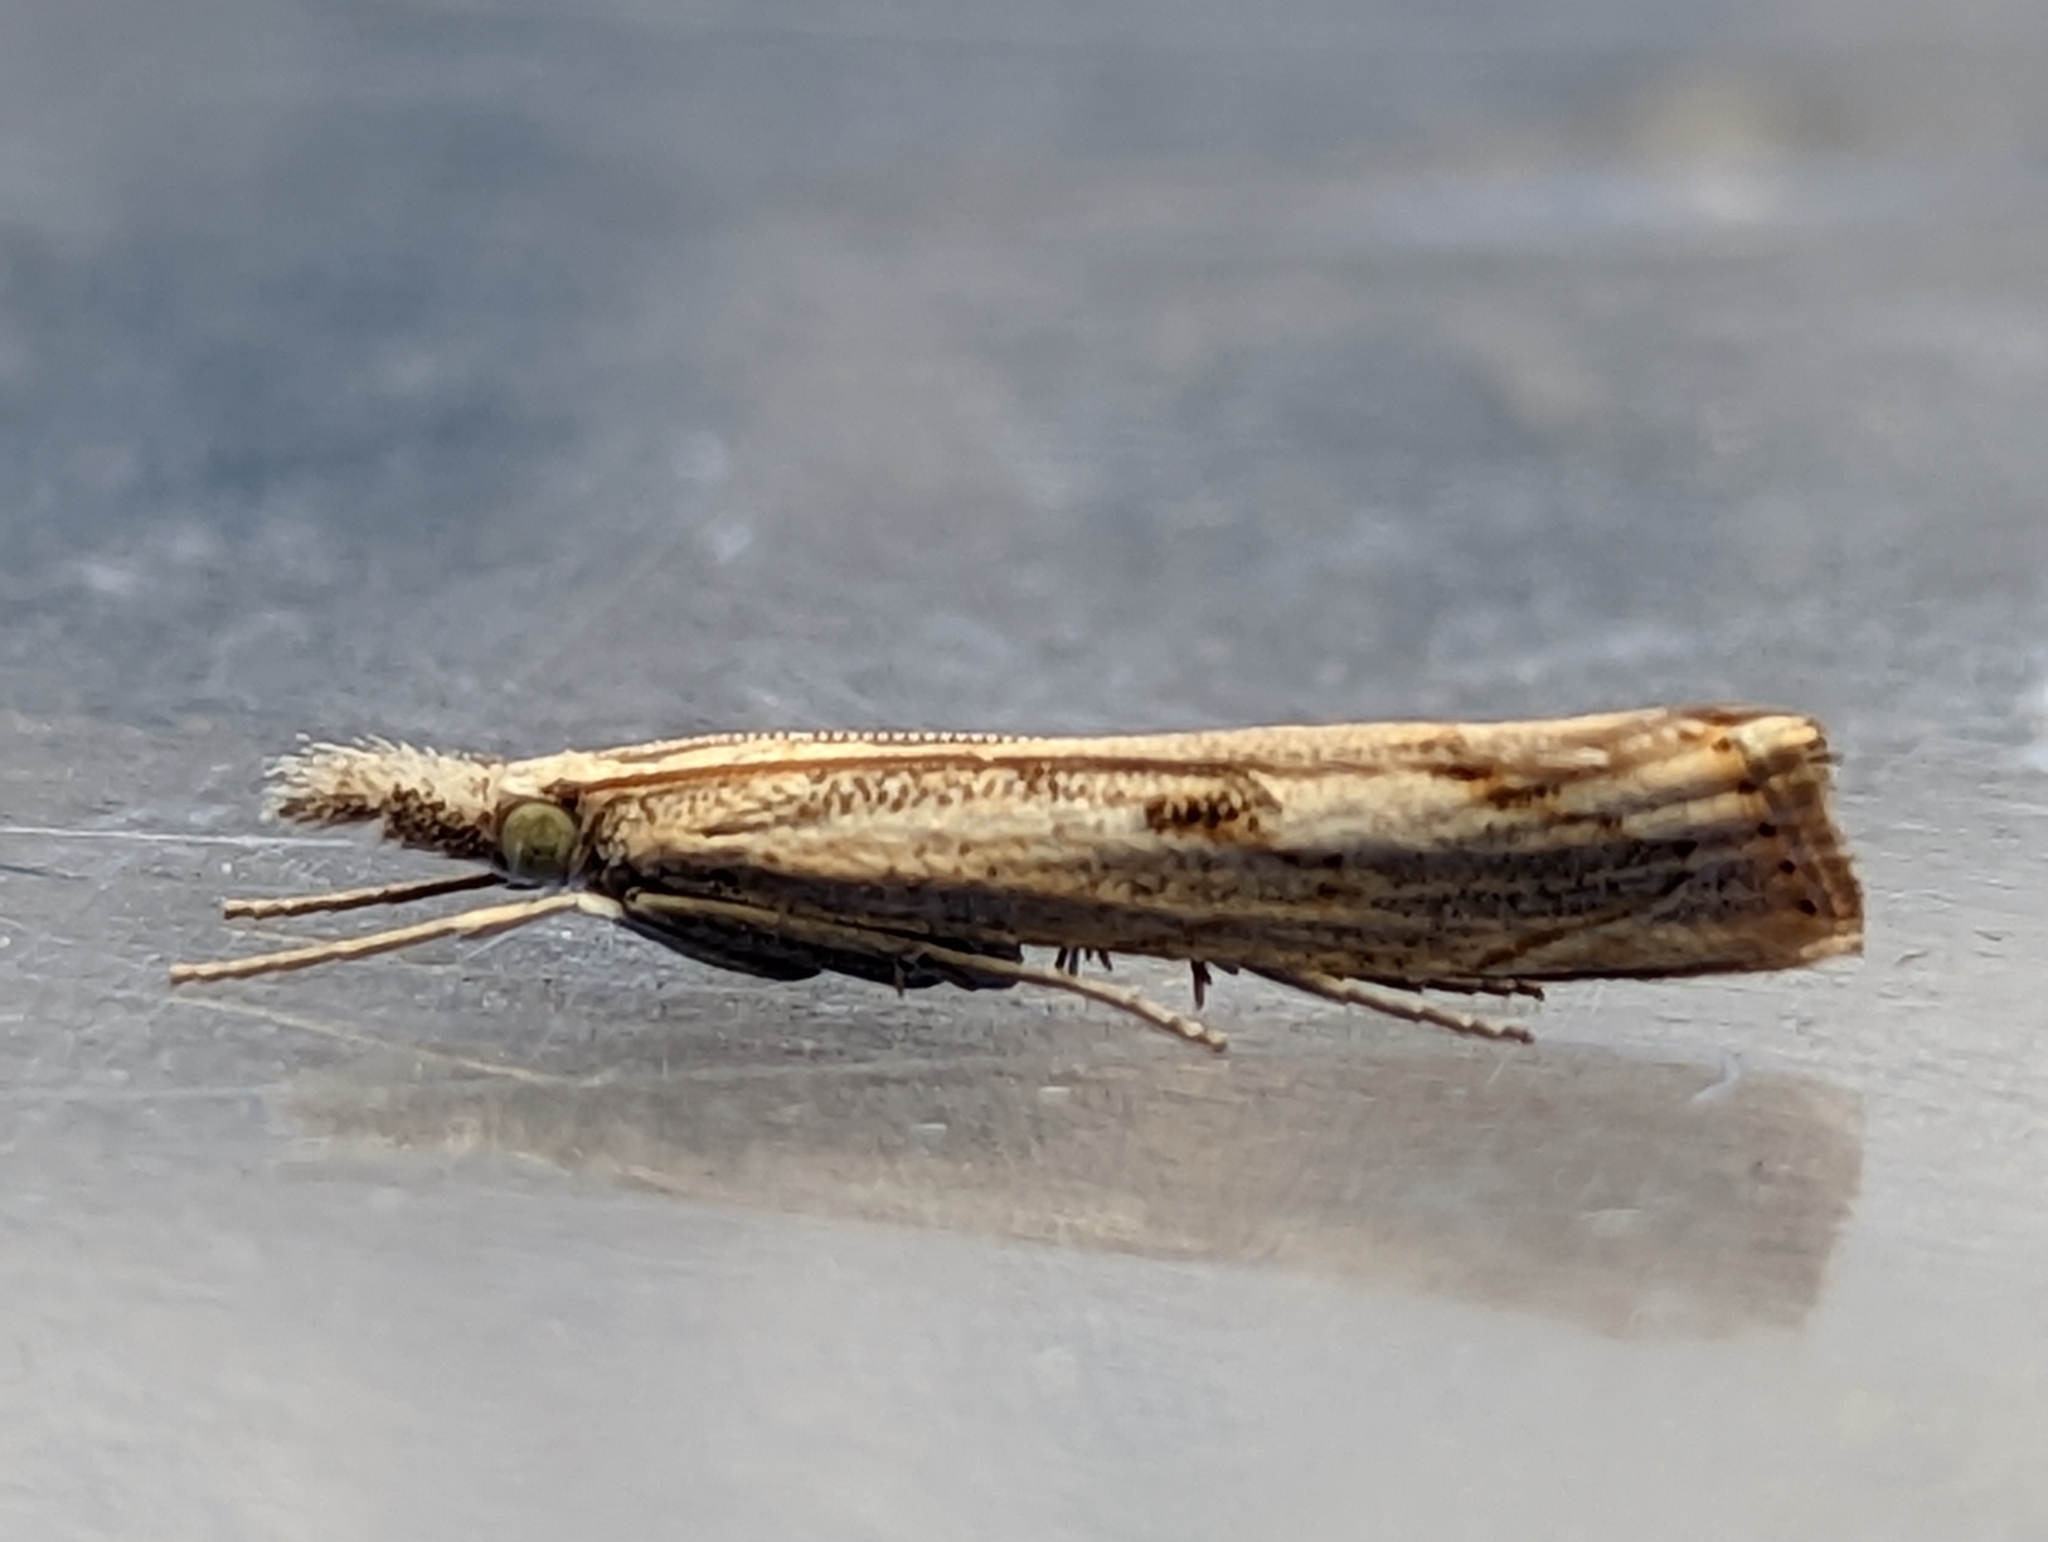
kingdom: Animalia
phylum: Arthropoda
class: Insecta
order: Lepidoptera
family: Crambidae
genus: Agriphila
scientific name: Agriphila geniculea
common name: Elbow-stripe grass-veneer
